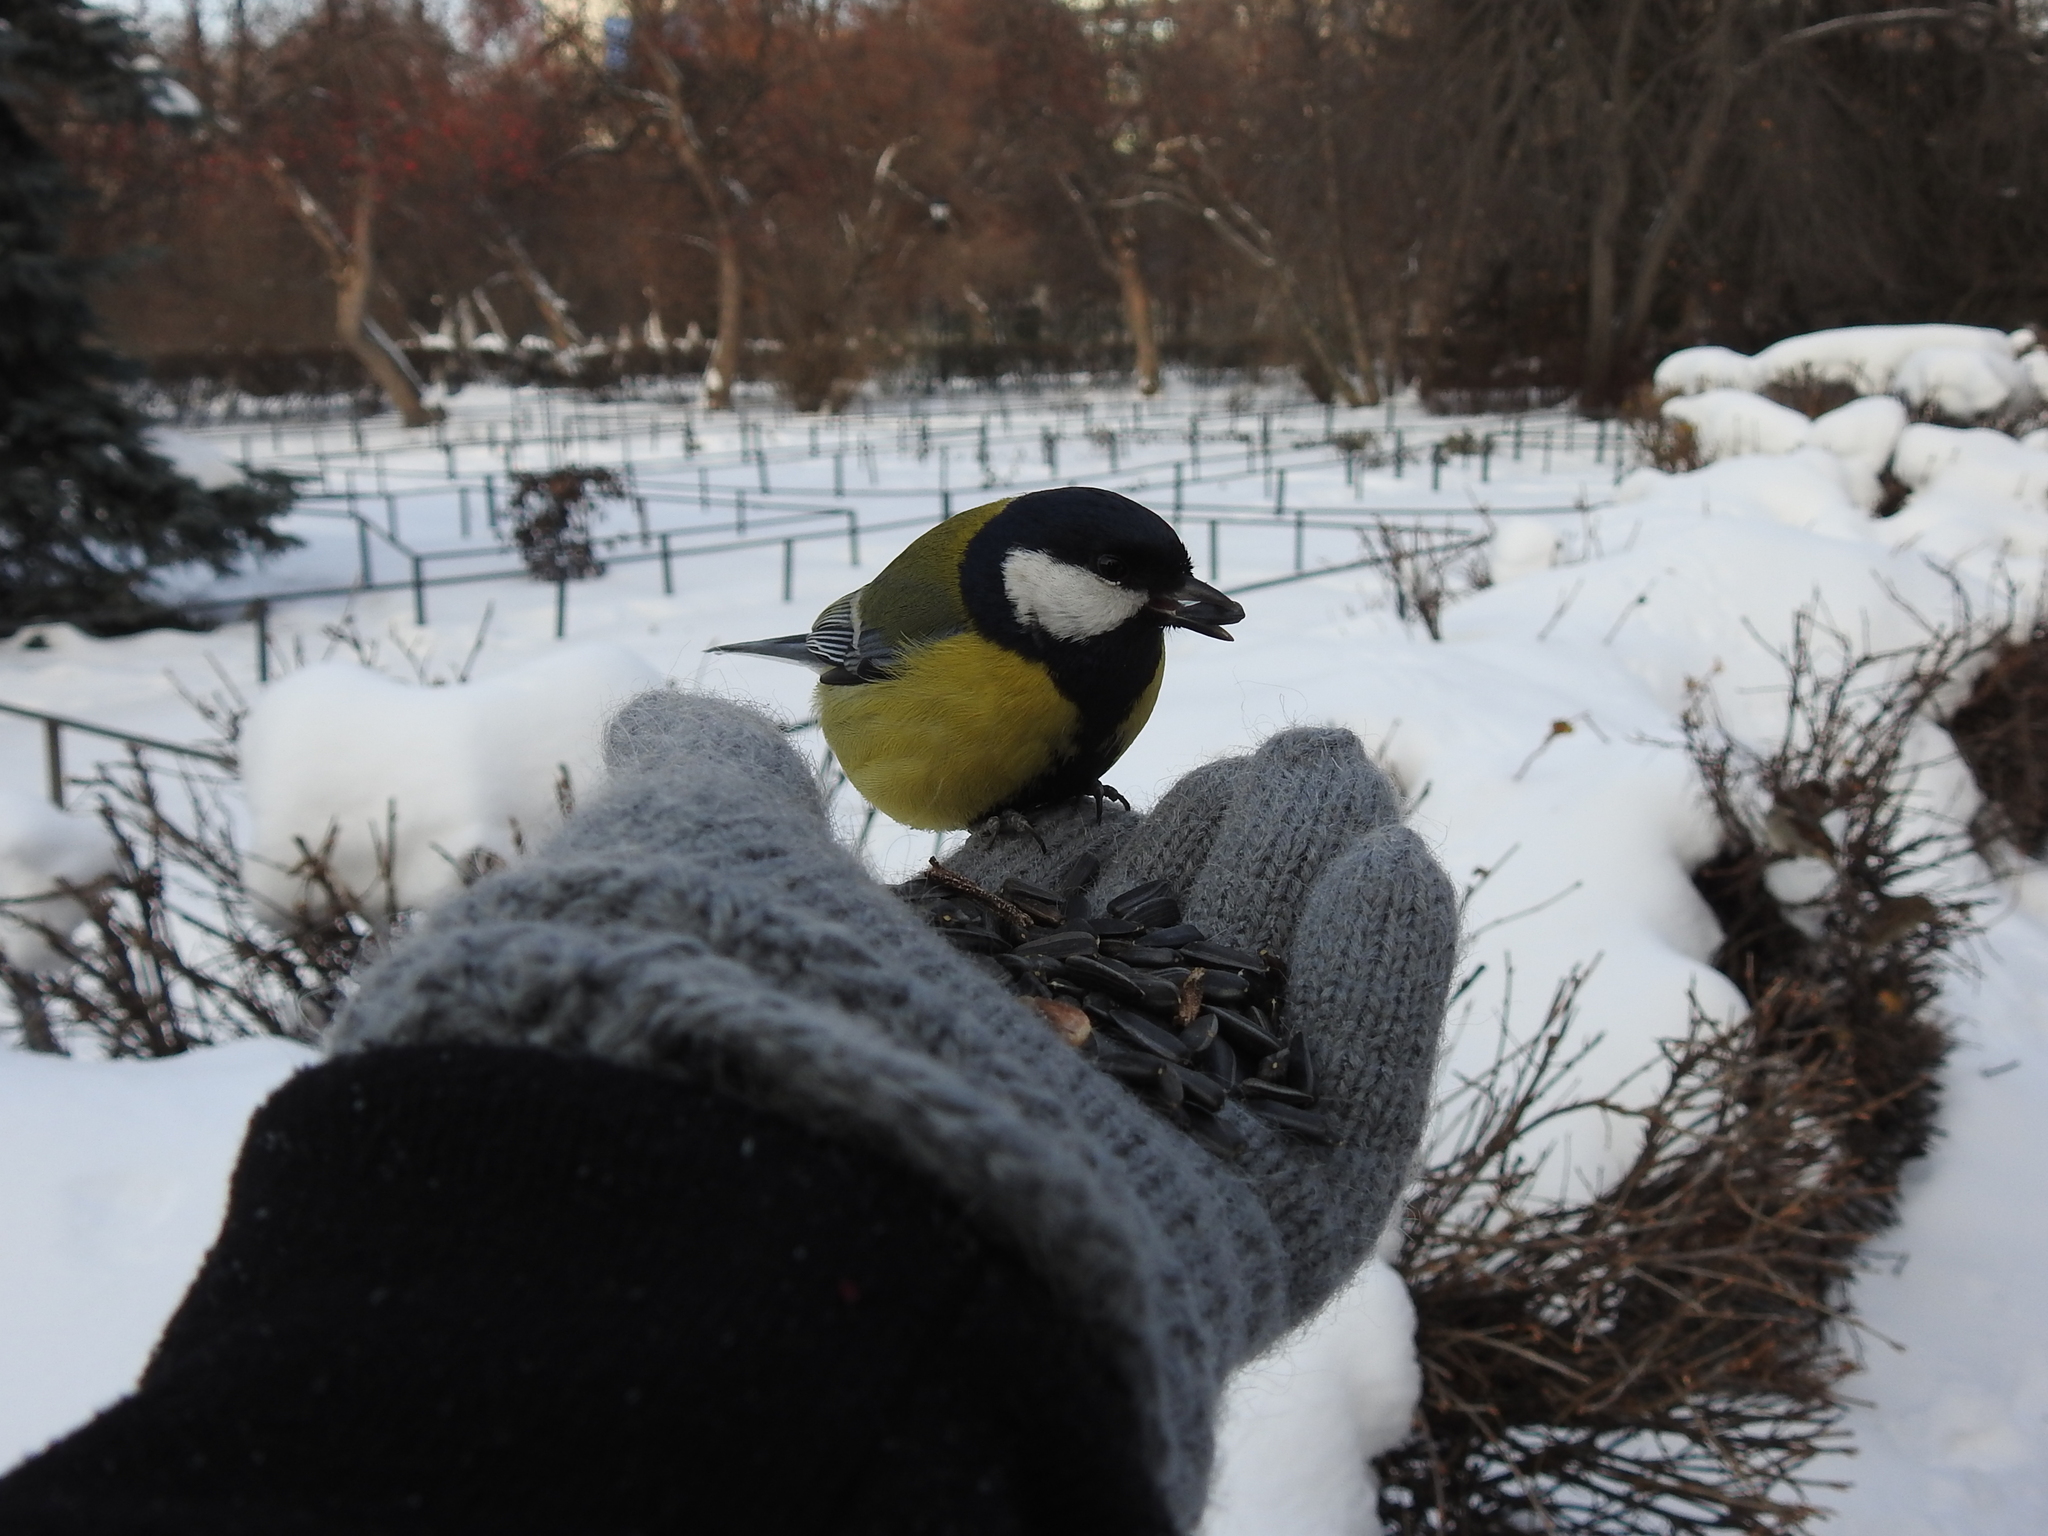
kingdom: Animalia
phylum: Chordata
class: Aves
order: Passeriformes
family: Paridae
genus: Parus
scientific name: Parus major
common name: Great tit
